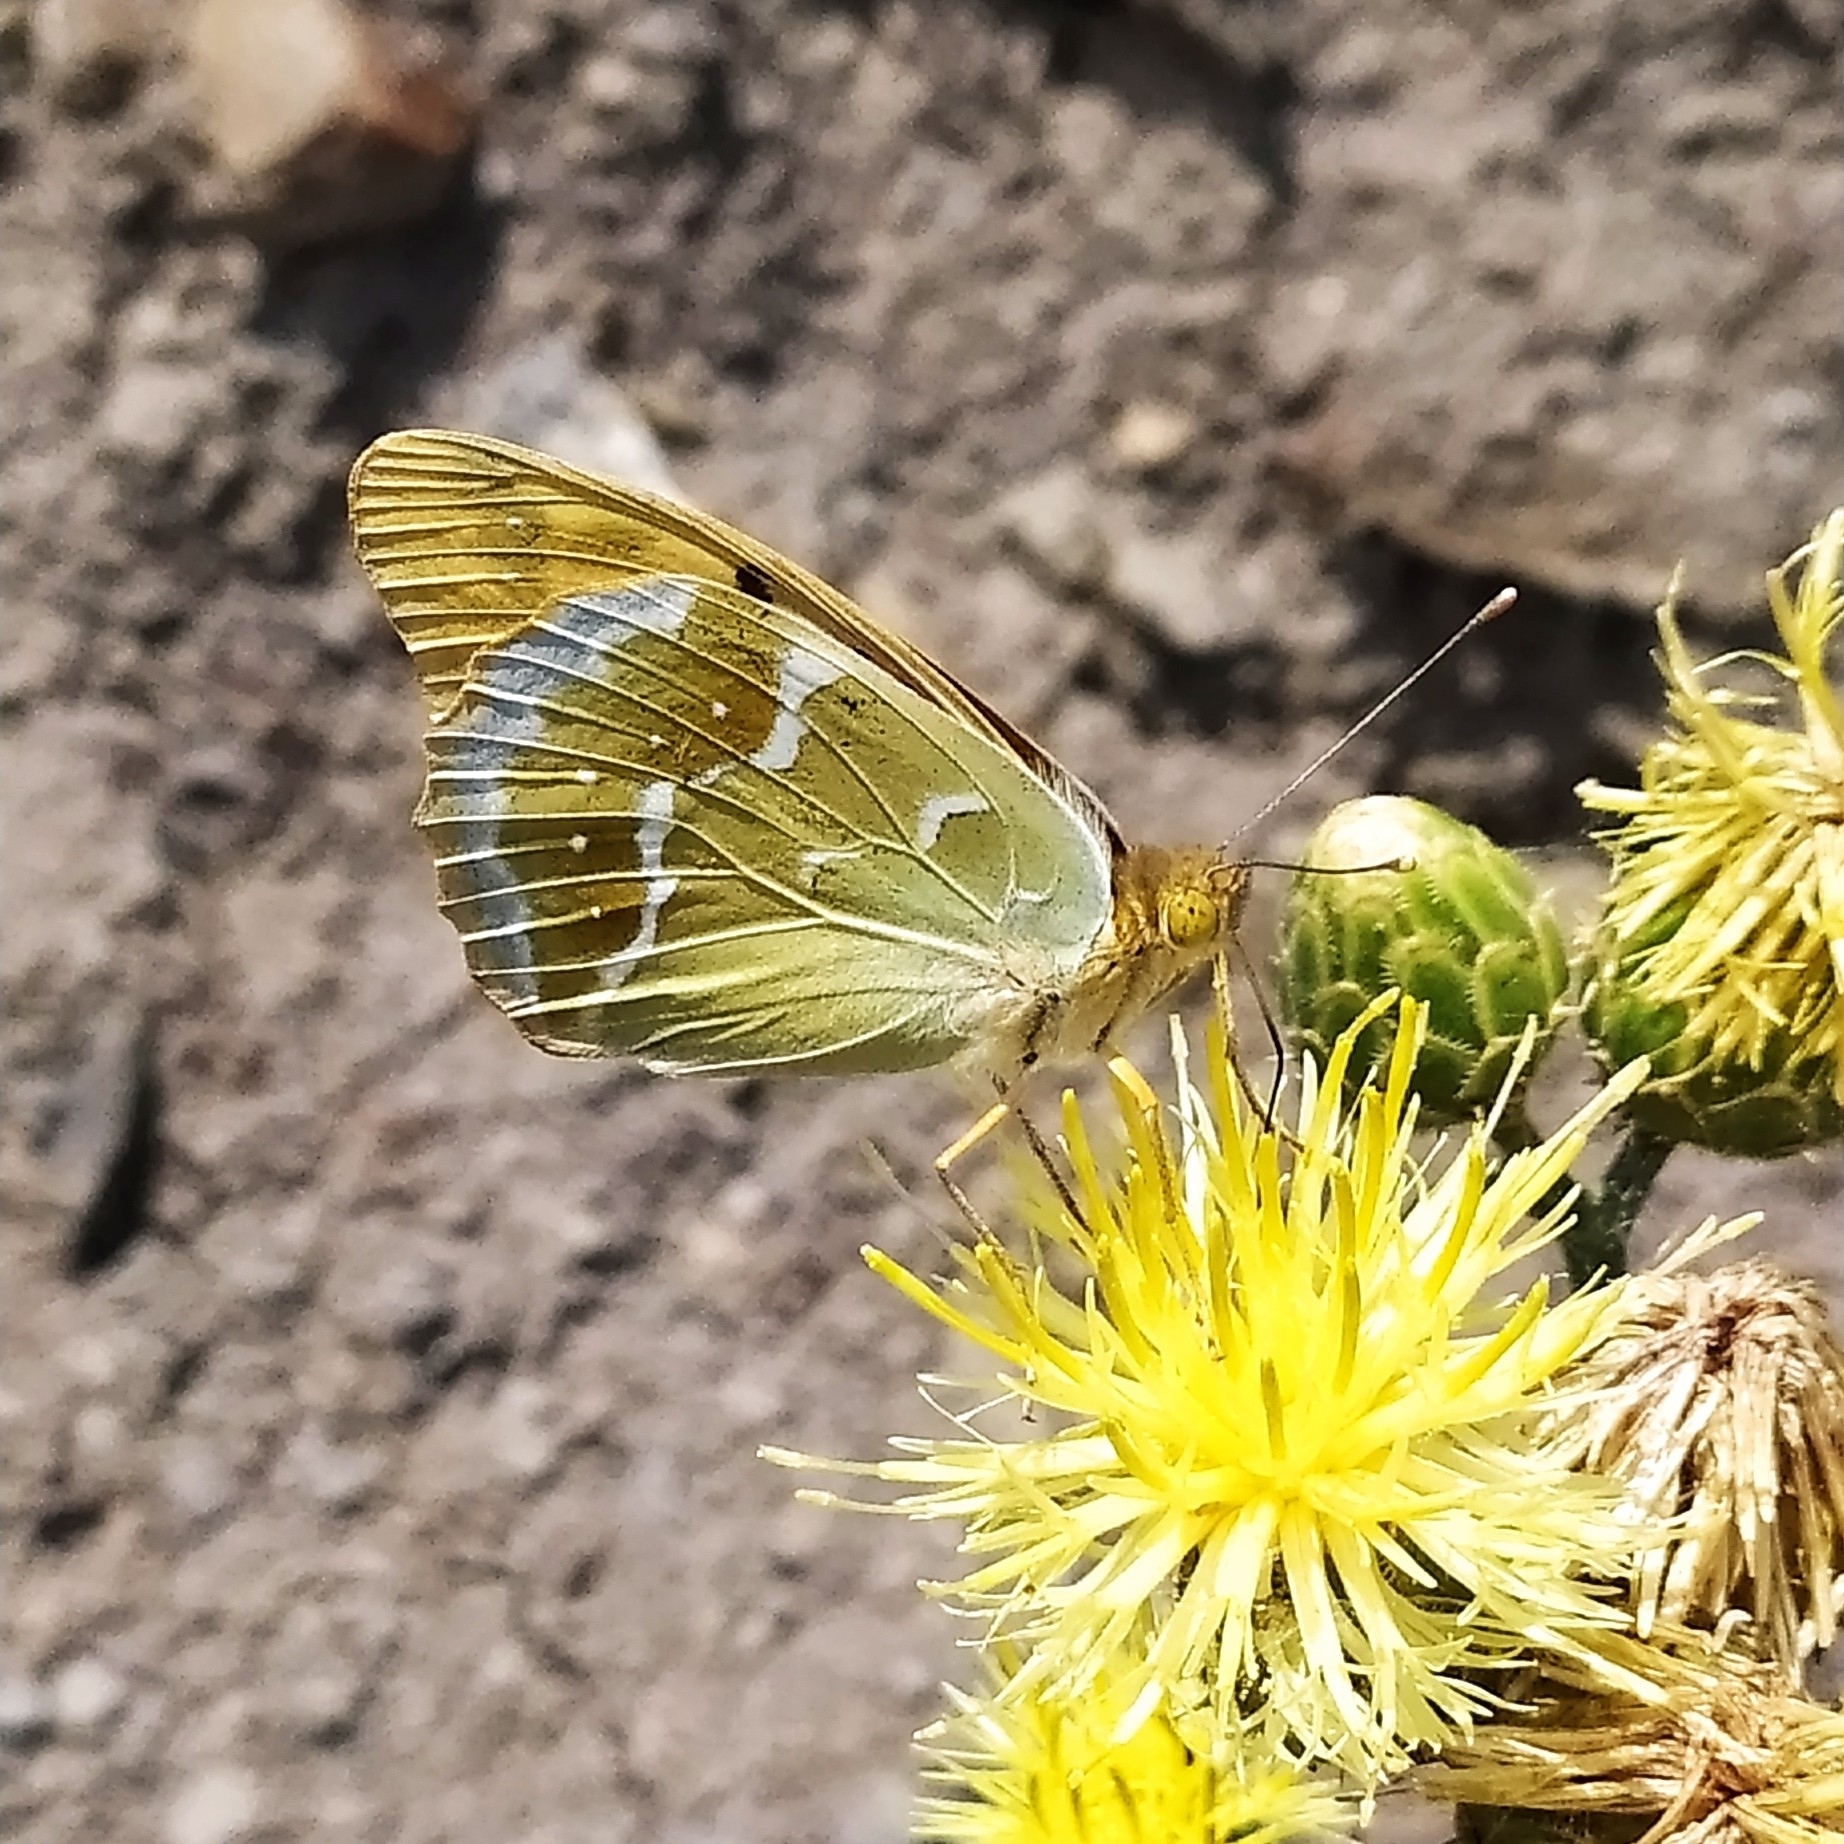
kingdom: Animalia
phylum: Arthropoda
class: Insecta
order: Lepidoptera
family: Nymphalidae
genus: Damora
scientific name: Damora pandora
